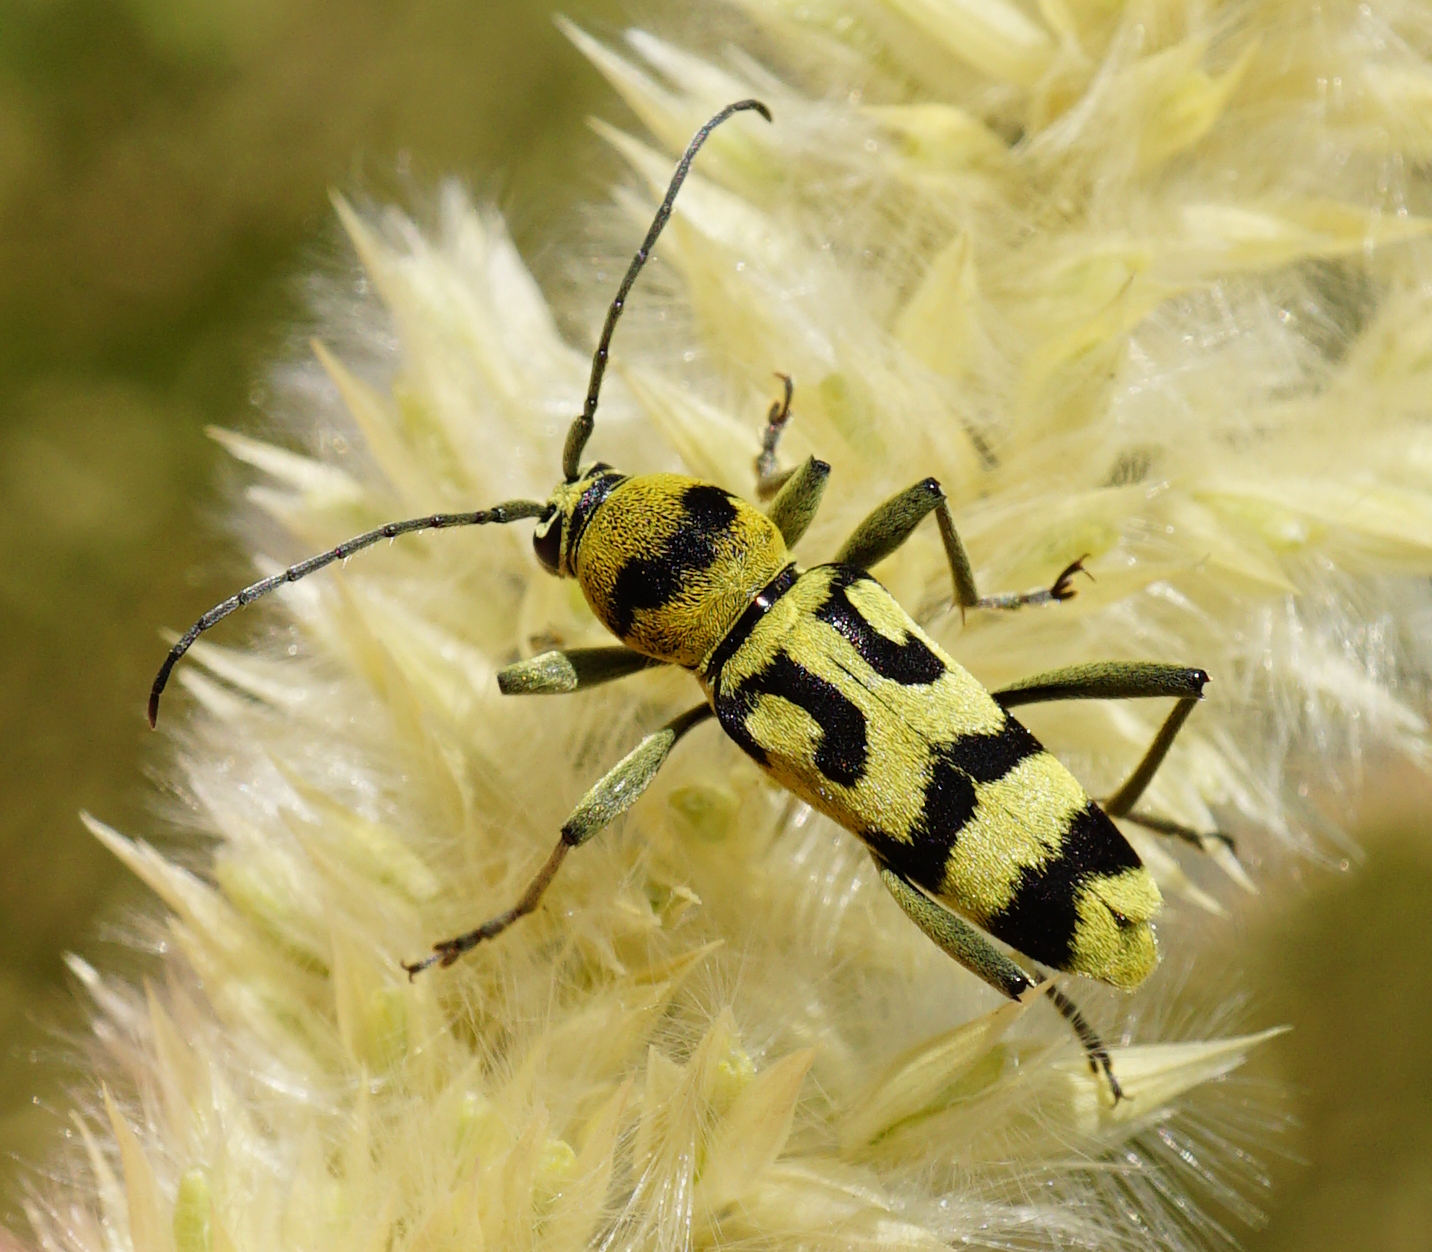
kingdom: Animalia
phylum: Arthropoda
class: Insecta
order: Coleoptera
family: Cerambycidae
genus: Chlorophorus
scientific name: Chlorophorus varius
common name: Grape wood borer
